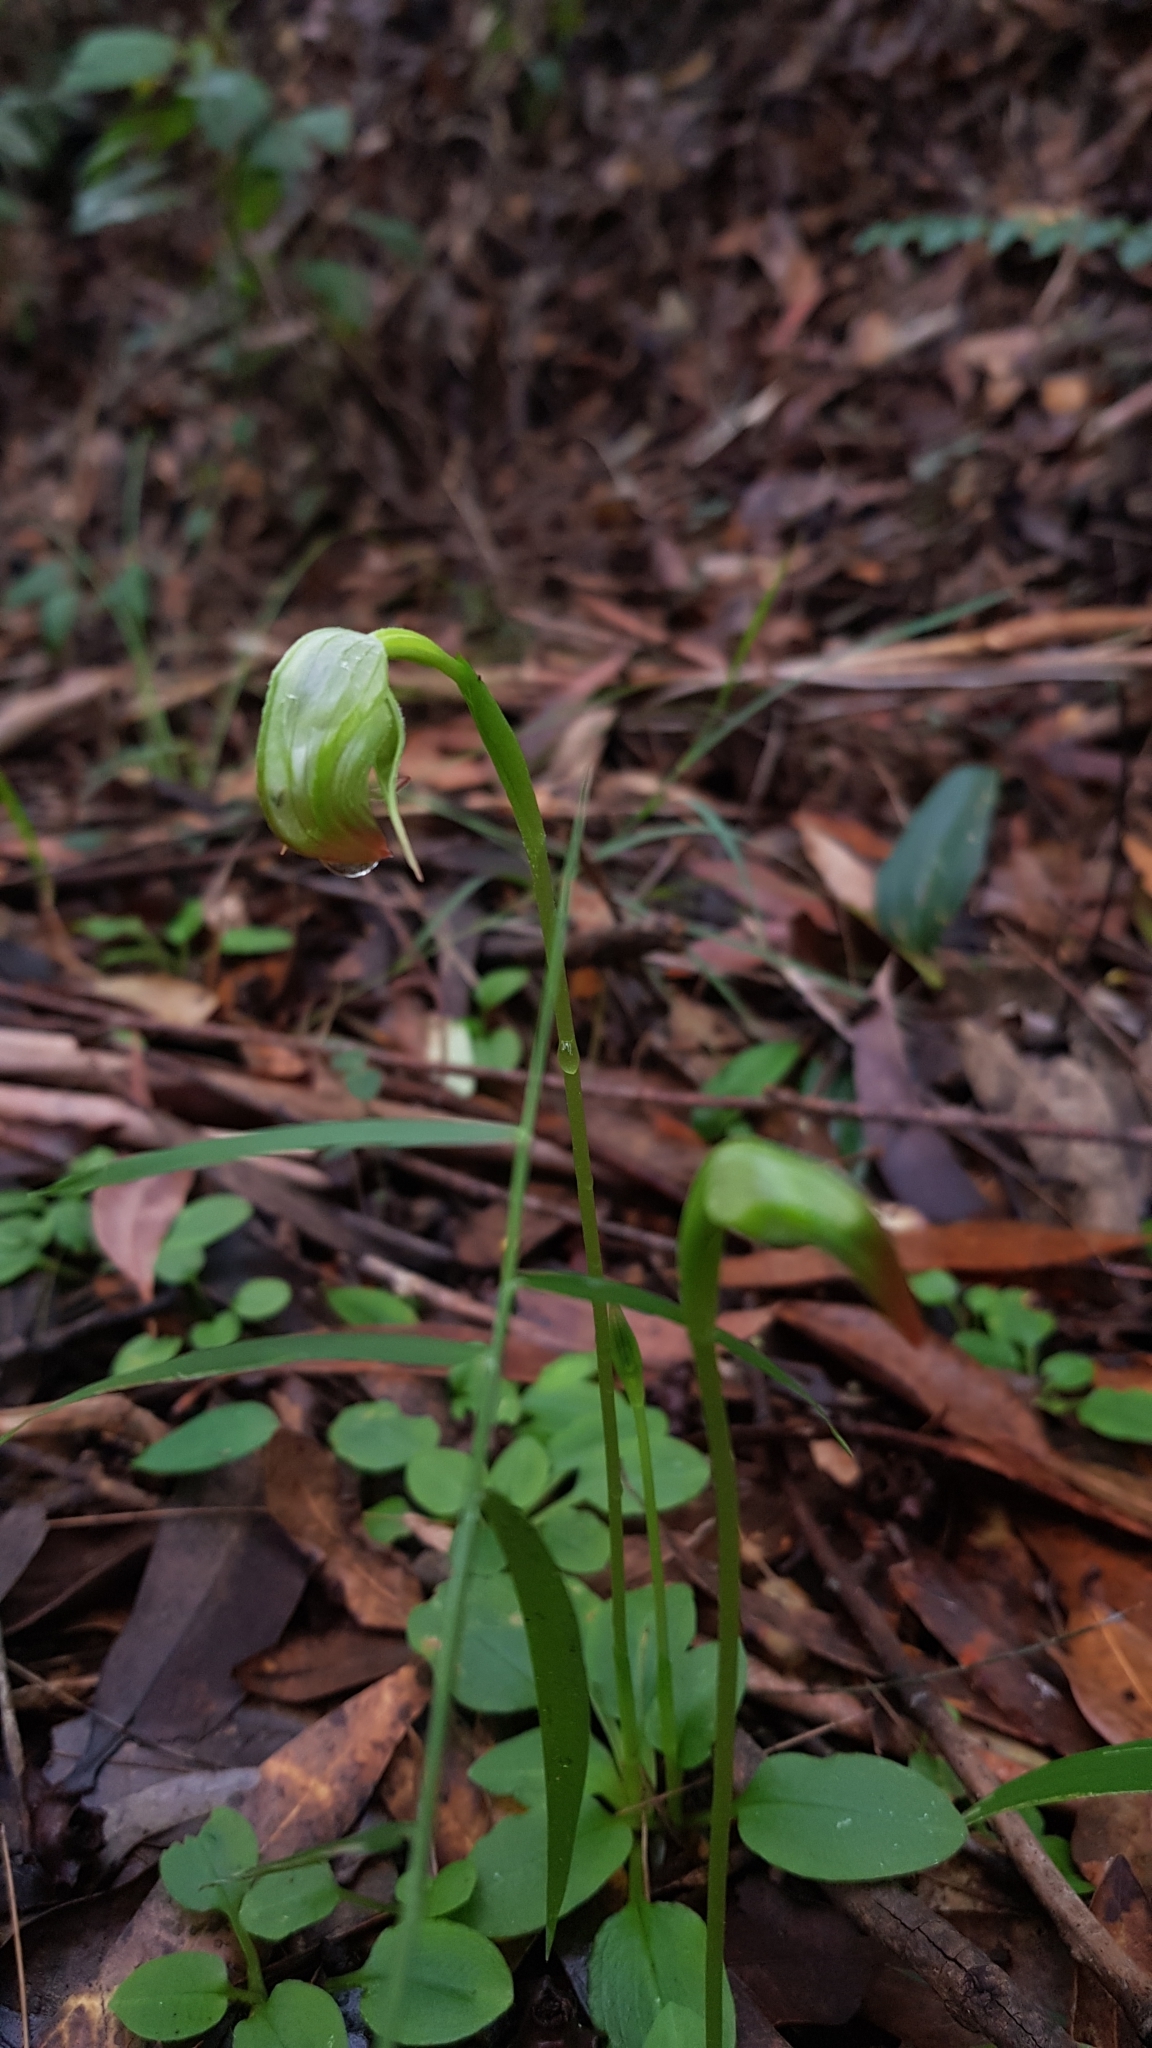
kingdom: Plantae
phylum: Tracheophyta
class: Liliopsida
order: Asparagales
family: Orchidaceae
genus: Pterostylis
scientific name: Pterostylis nutans
